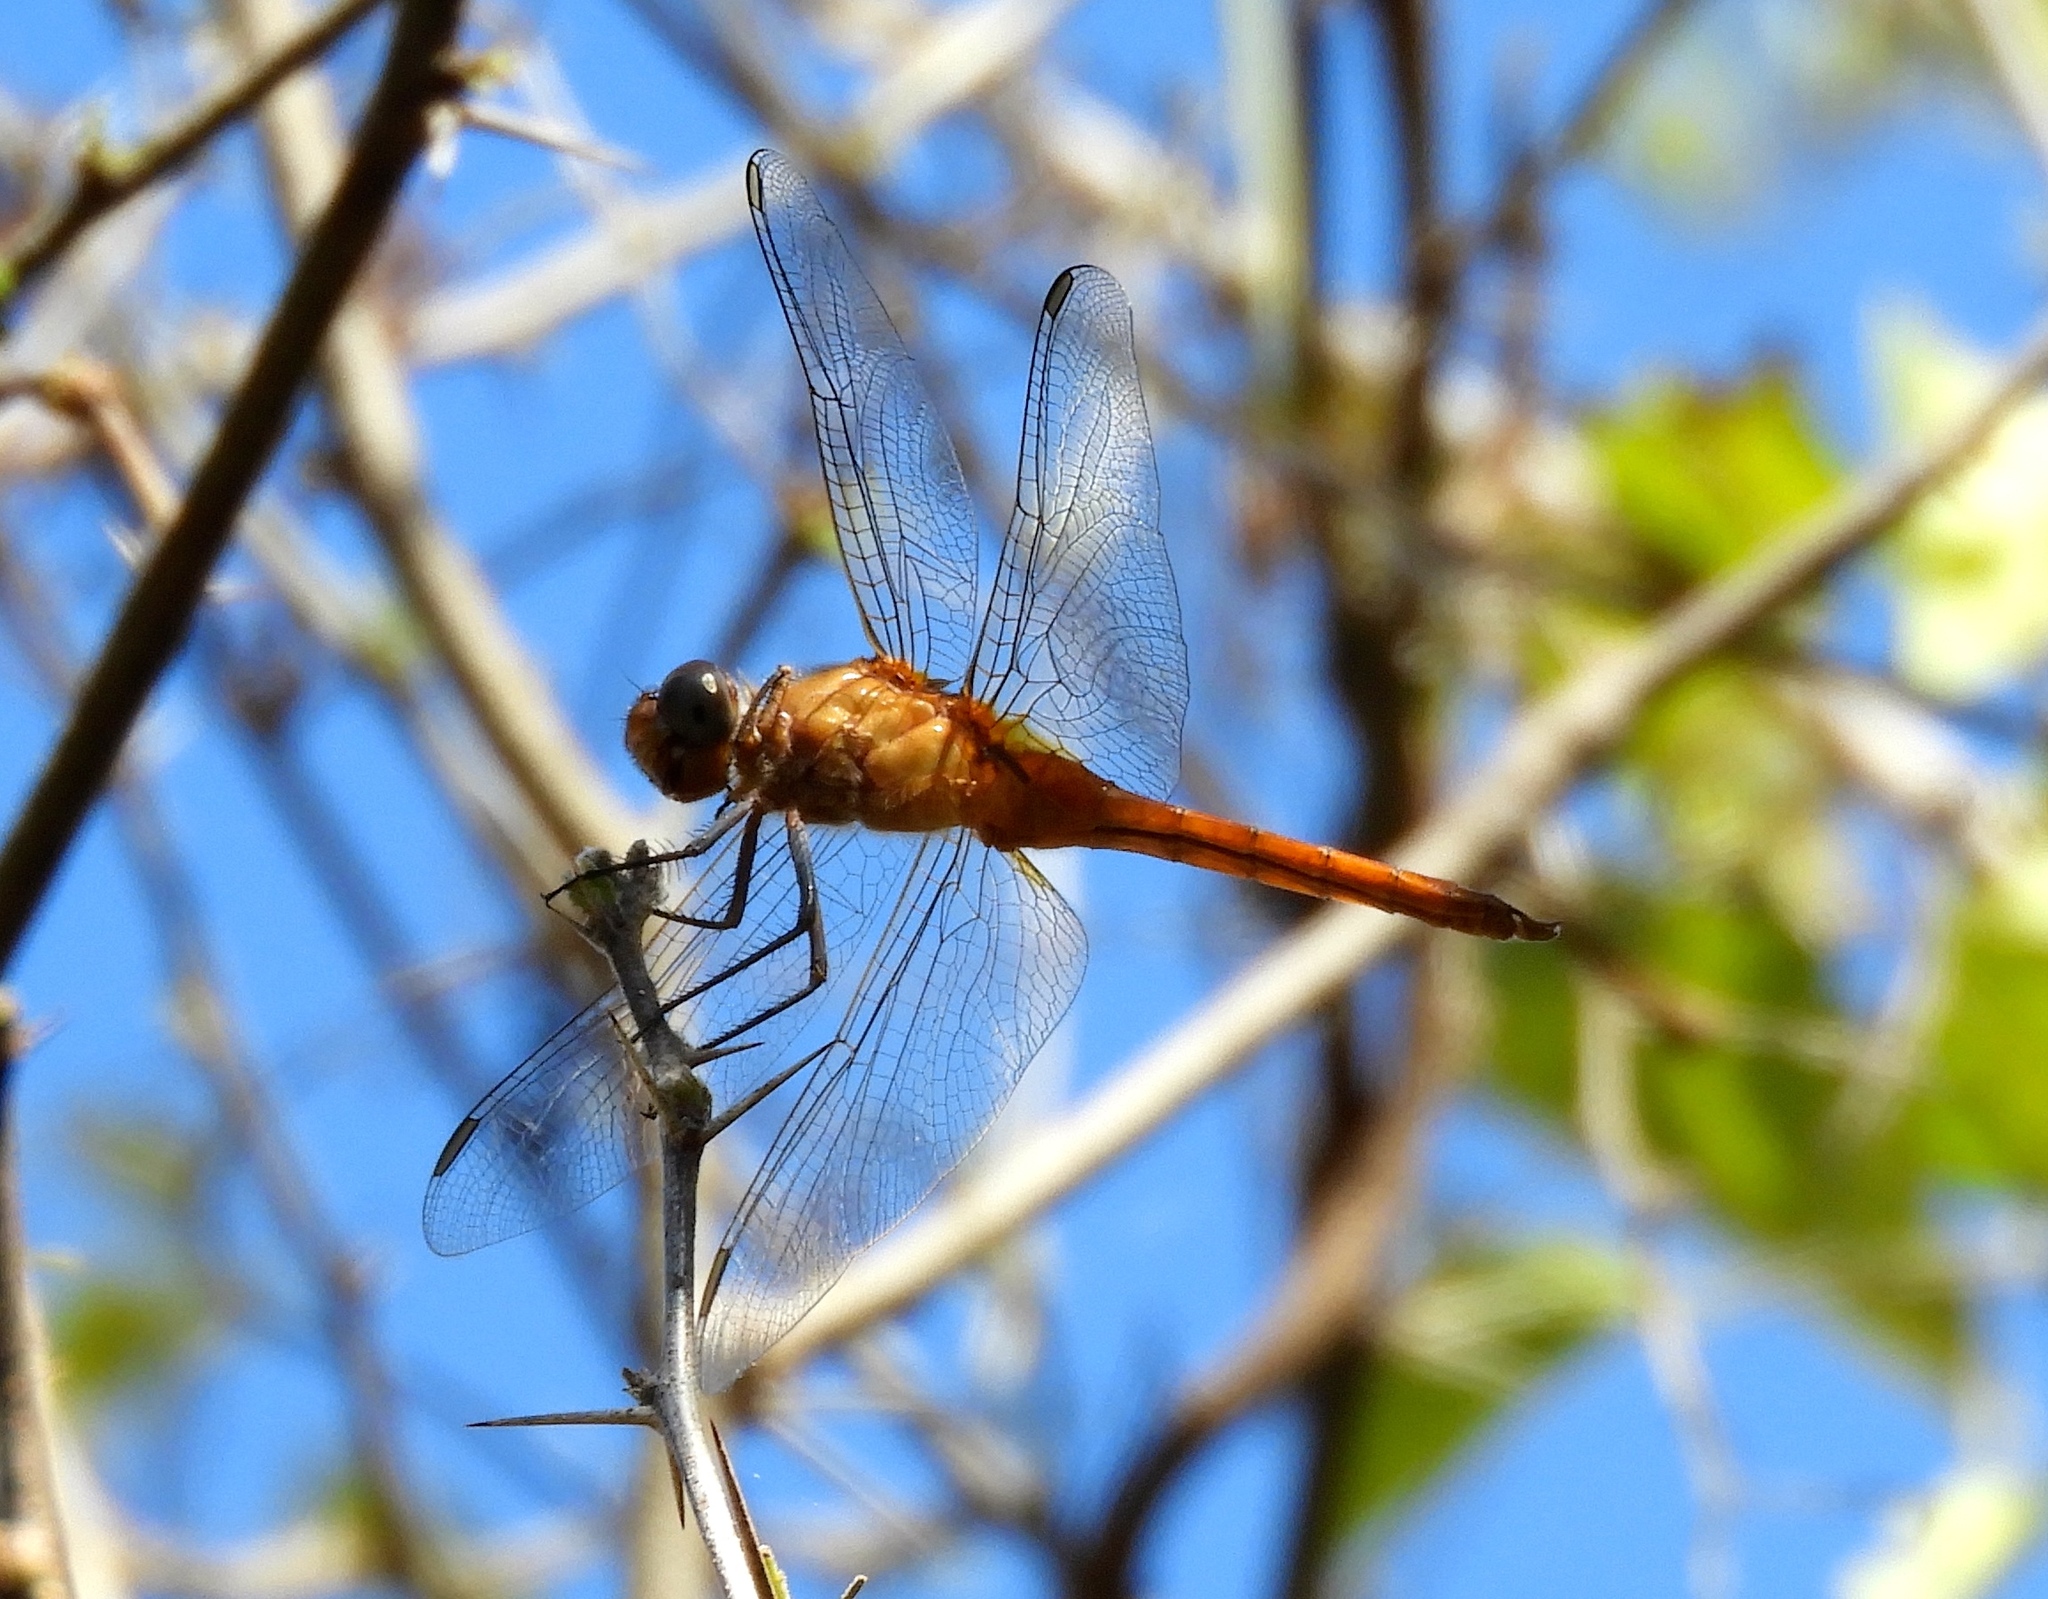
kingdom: Animalia
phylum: Arthropoda
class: Insecta
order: Odonata
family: Libellulidae
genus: Brachymesia
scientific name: Brachymesia furcata
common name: Red-taled pennant
